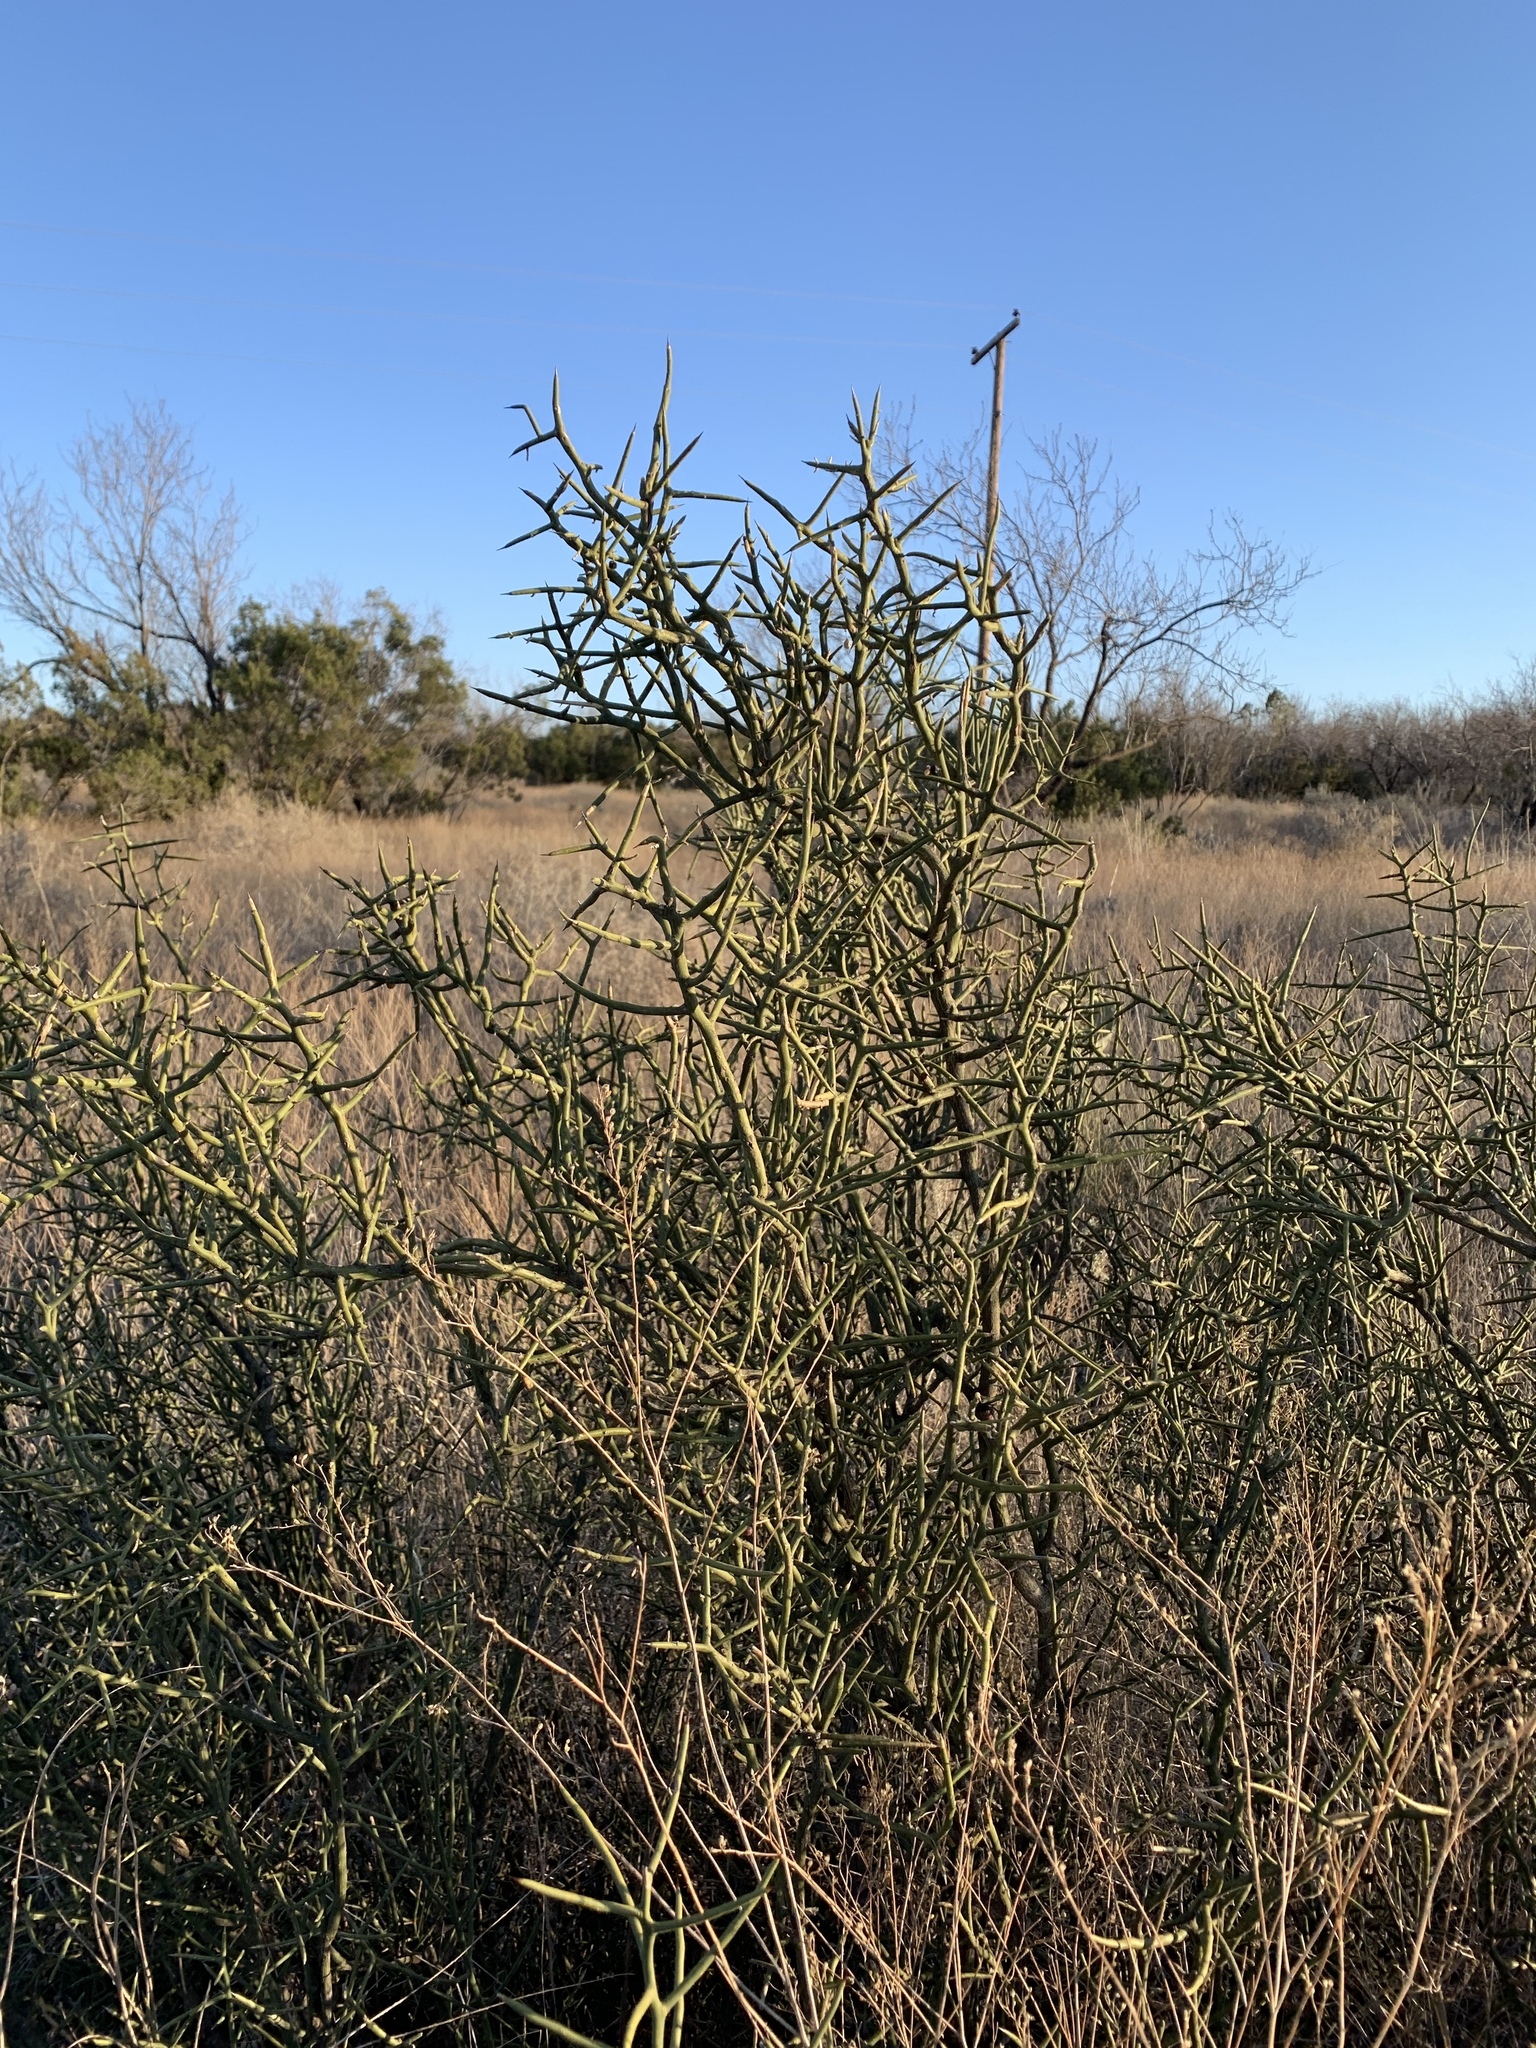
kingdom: Plantae
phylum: Tracheophyta
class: Magnoliopsida
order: Brassicales
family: Koeberliniaceae
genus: Koeberlinia
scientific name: Koeberlinia spinosa
